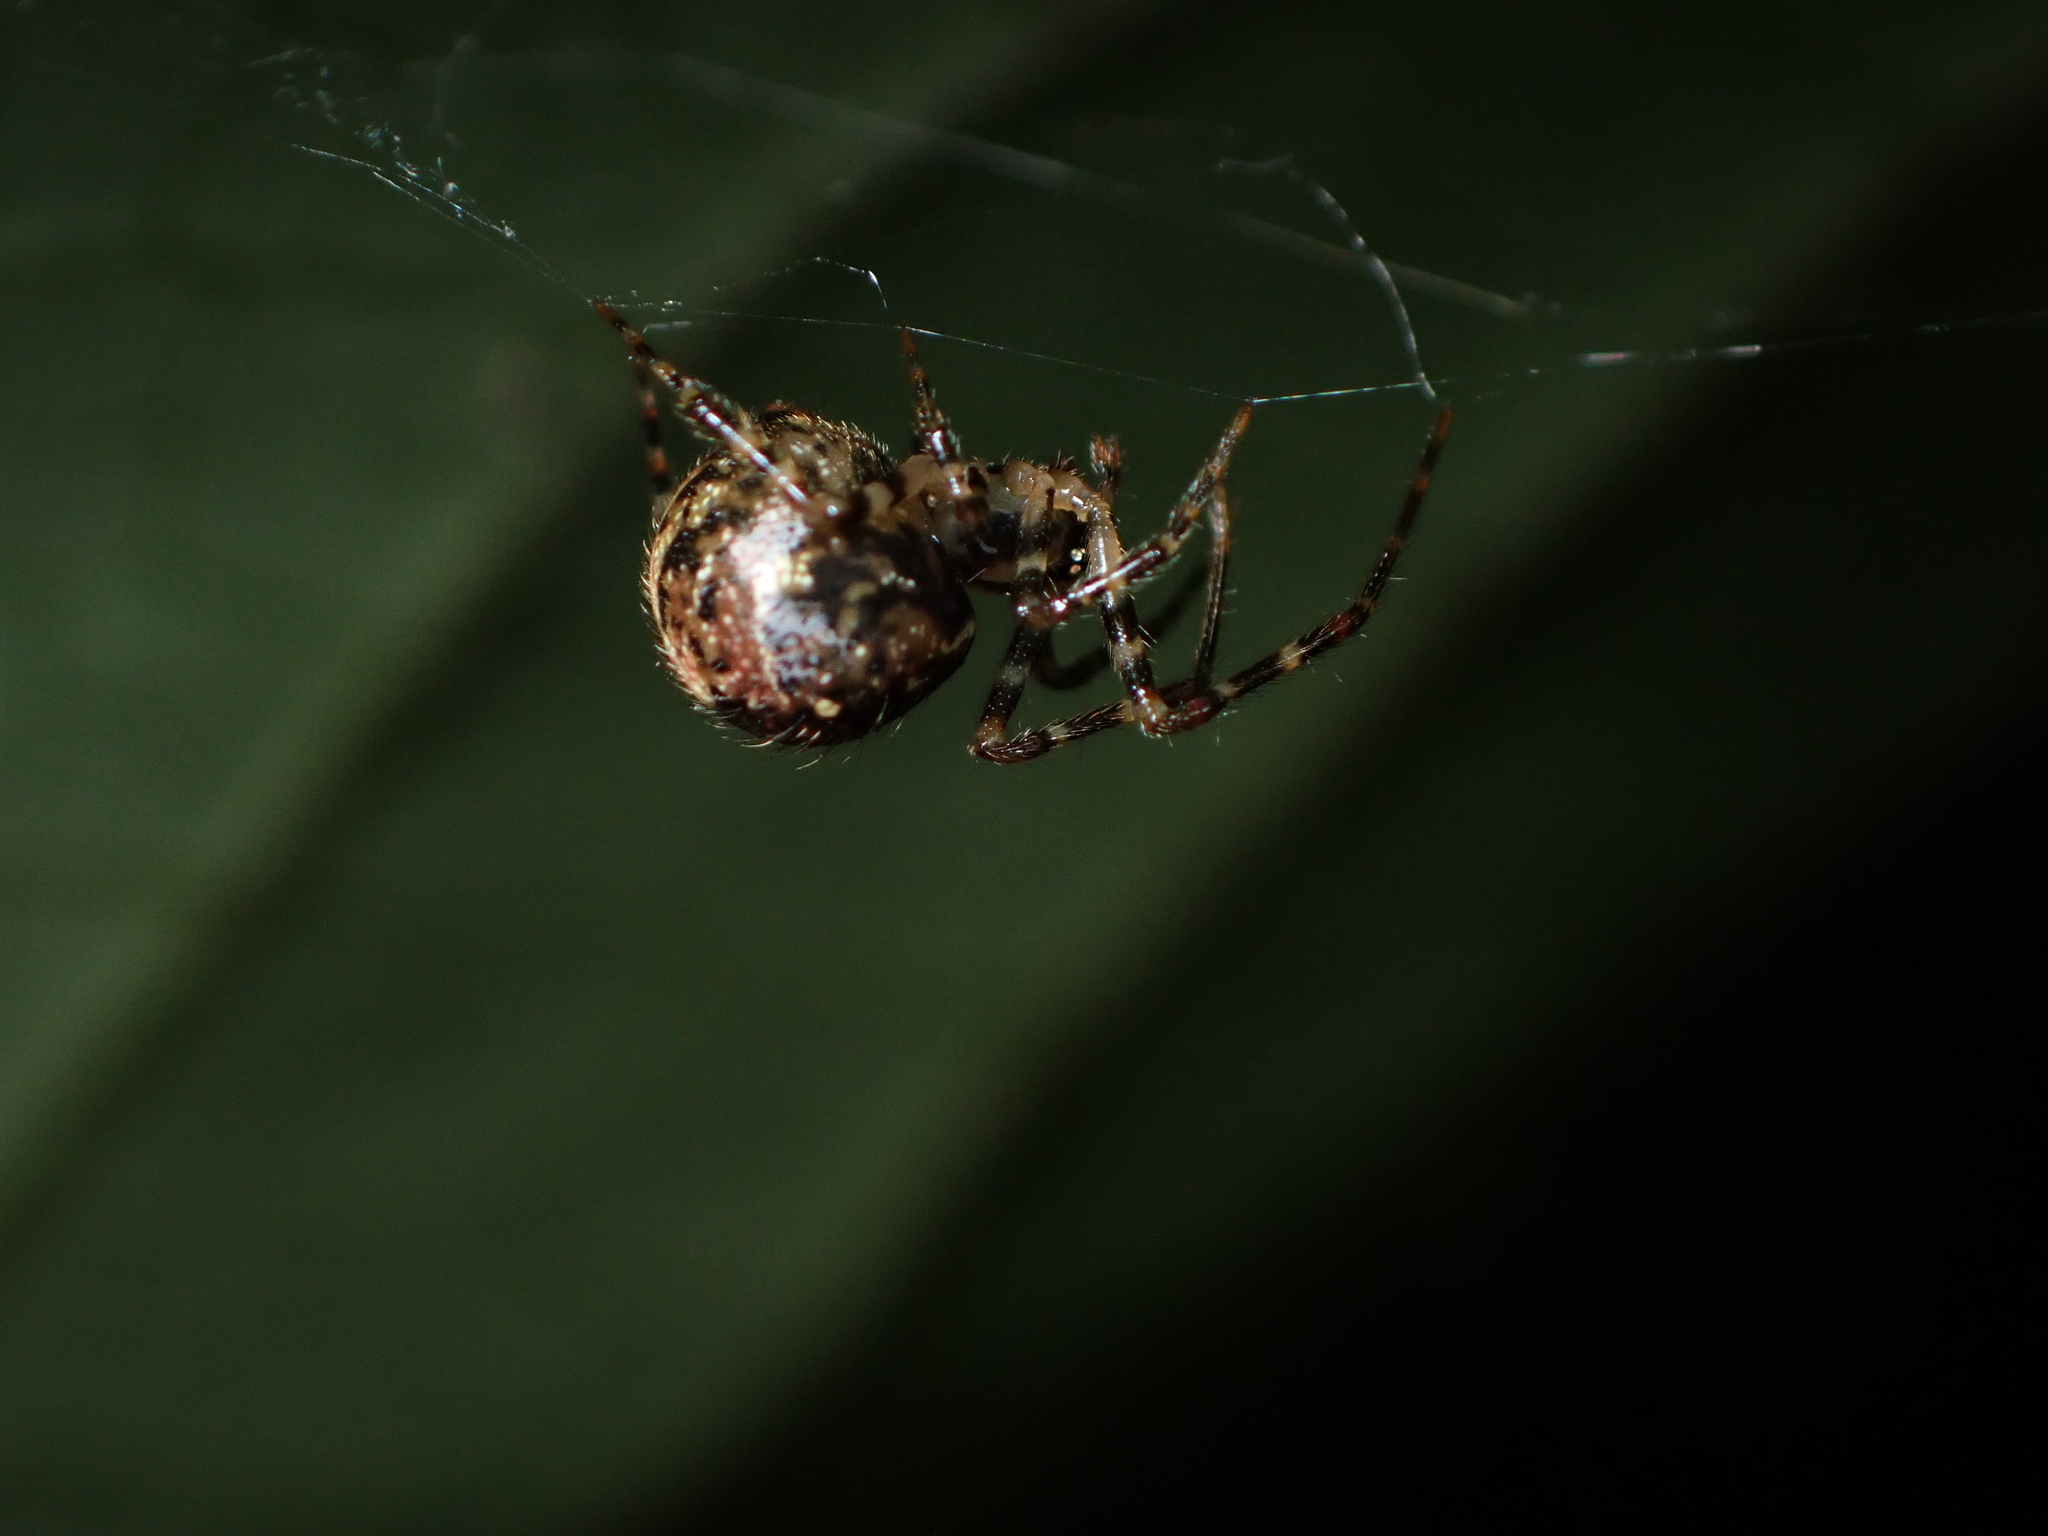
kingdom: Animalia
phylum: Arthropoda
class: Arachnida
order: Araneae
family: Theridiidae
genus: Theridion
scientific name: Theridion zantholabio
